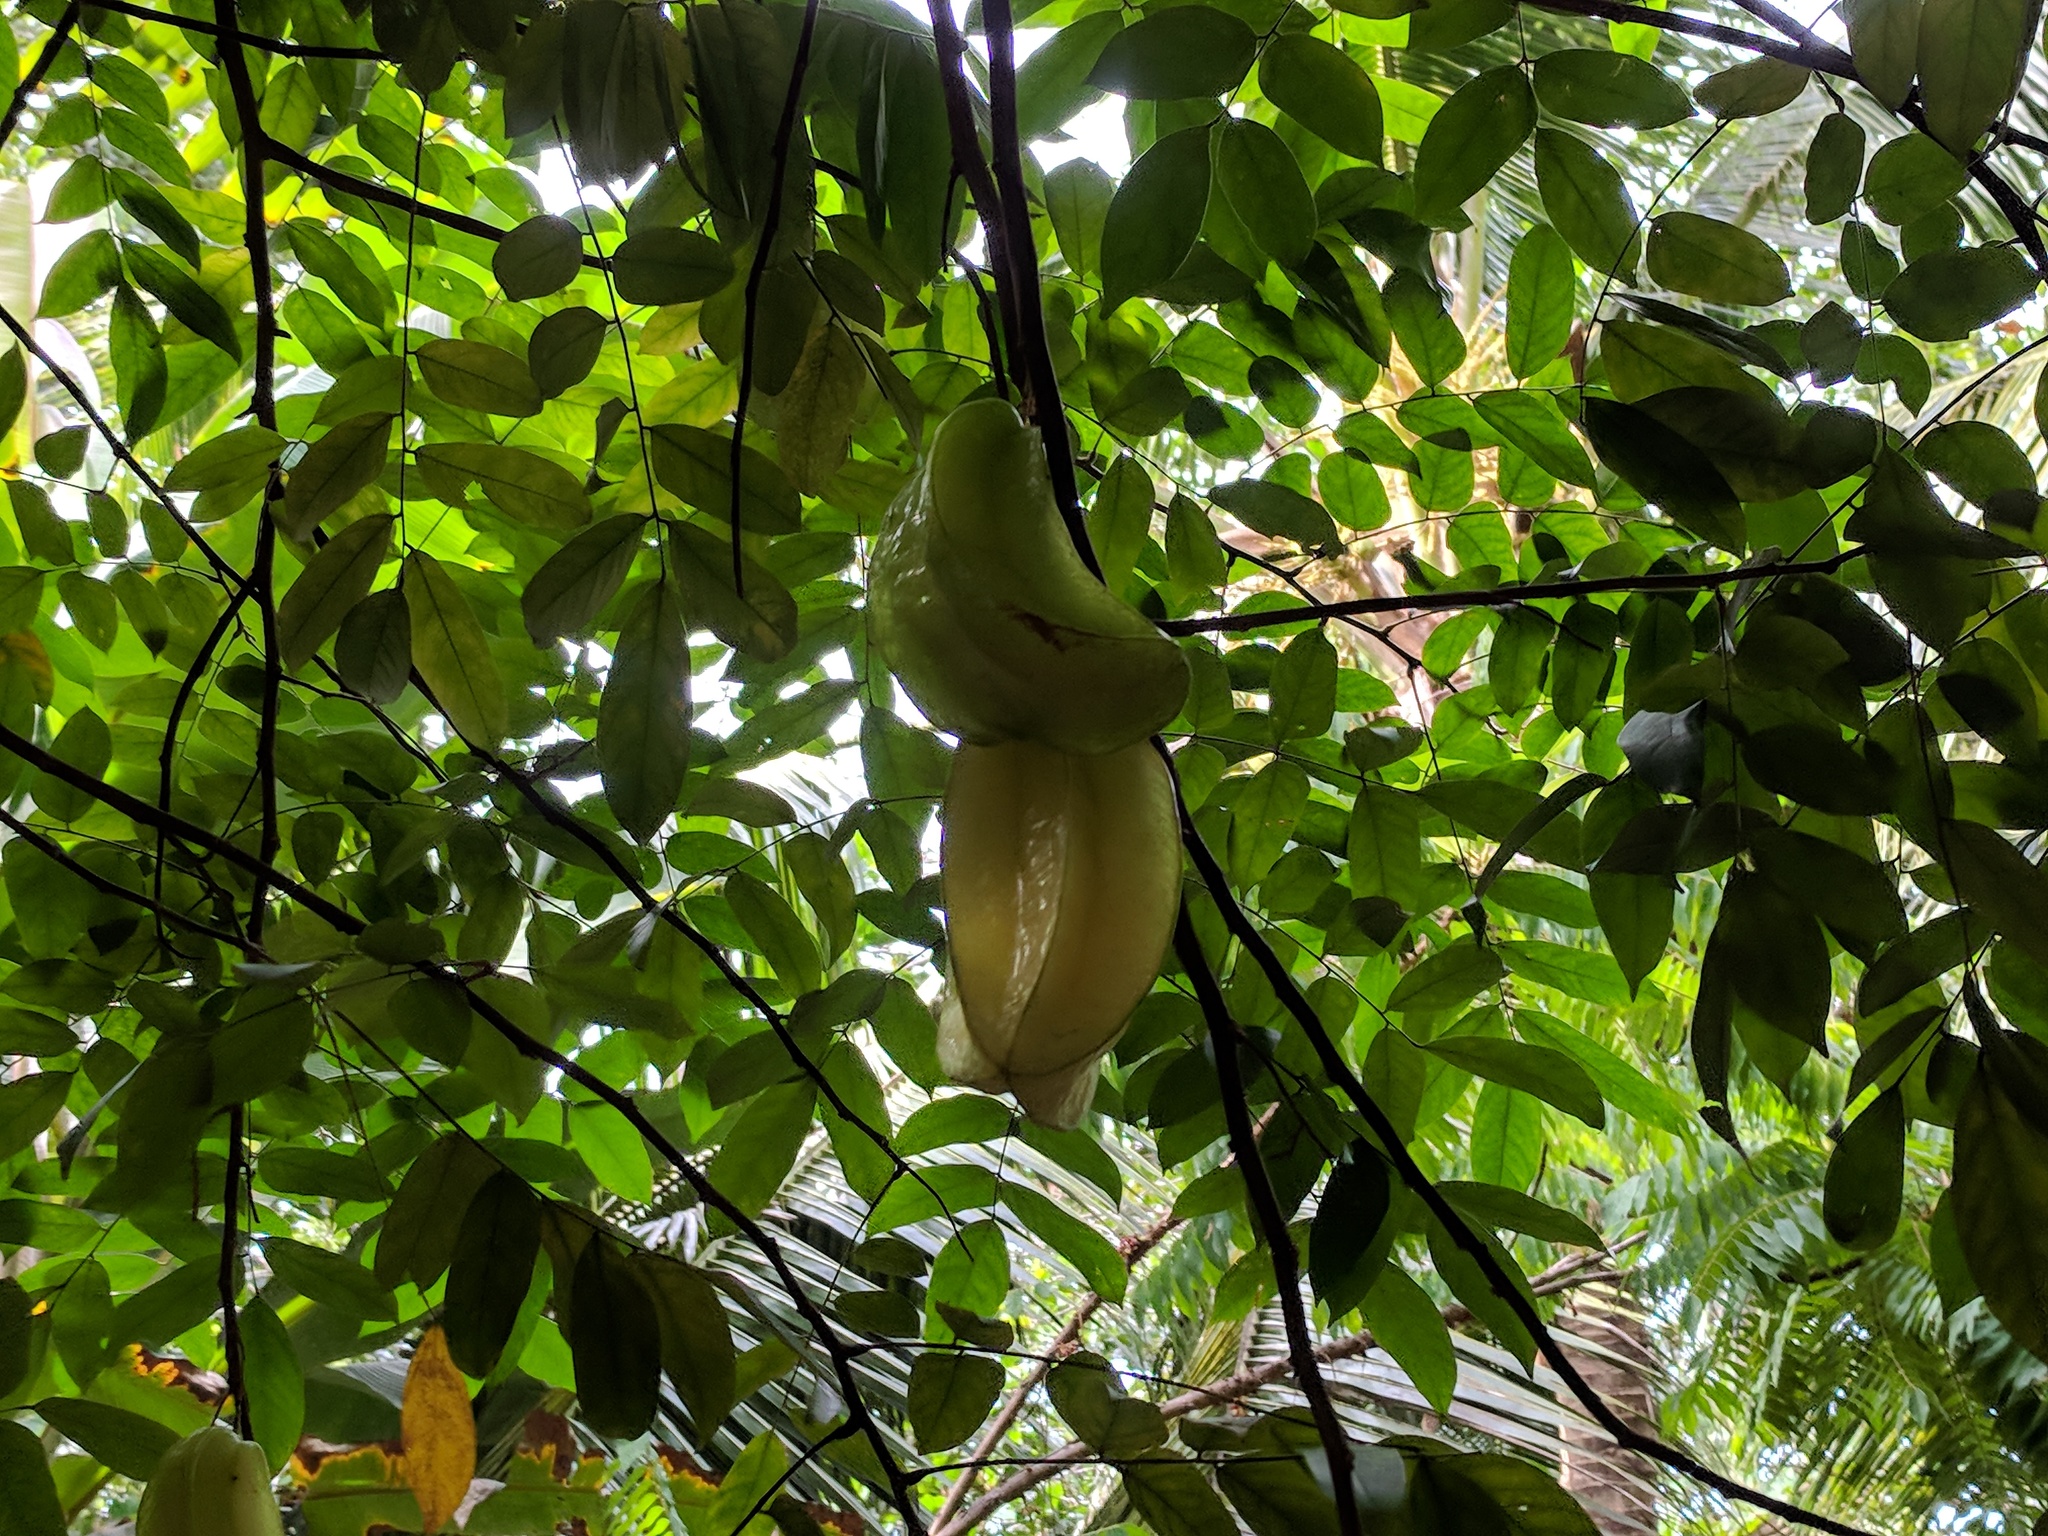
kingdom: Plantae
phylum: Tracheophyta
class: Magnoliopsida
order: Oxalidales
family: Oxalidaceae
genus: Averrhoa
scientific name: Averrhoa carambola
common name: Blimbing
